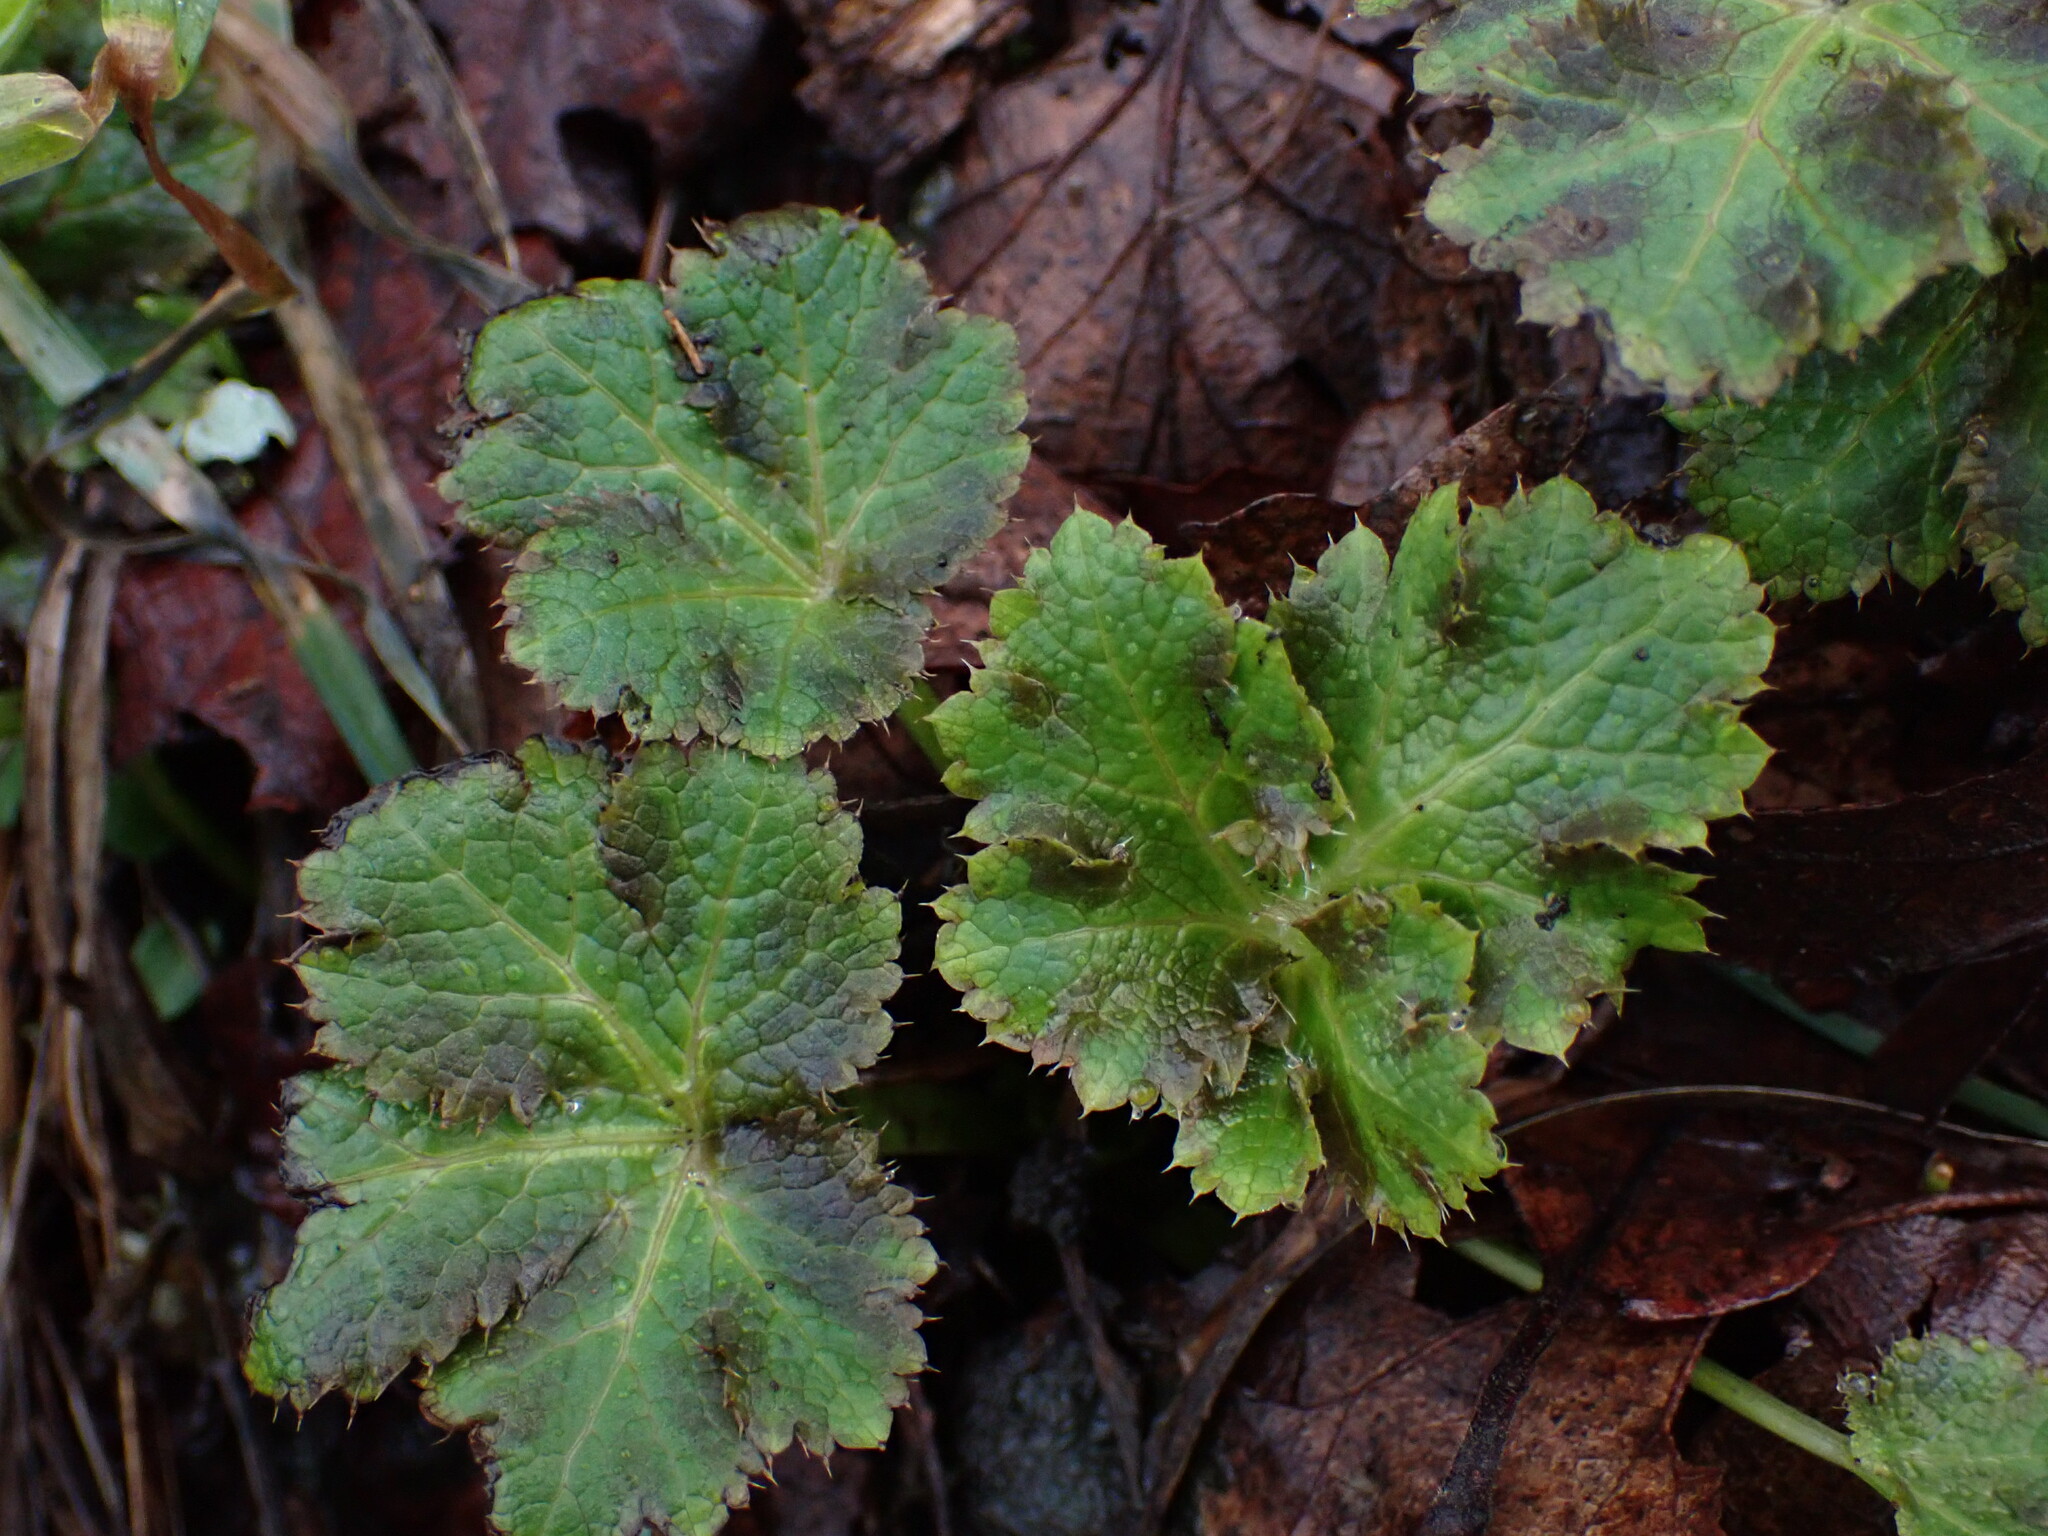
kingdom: Plantae
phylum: Tracheophyta
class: Magnoliopsida
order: Apiales
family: Apiaceae
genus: Sanicula
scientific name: Sanicula crassicaulis
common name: Western snakeroot
